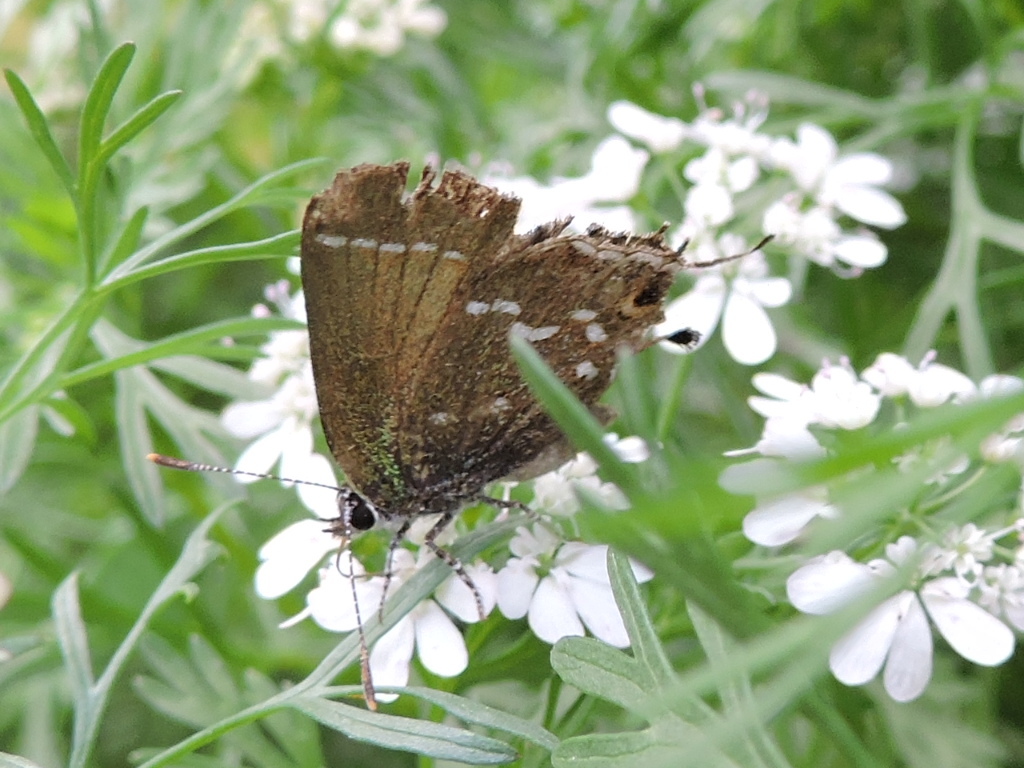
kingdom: Animalia
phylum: Arthropoda
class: Insecta
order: Lepidoptera
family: Lycaenidae
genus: Mitoura
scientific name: Mitoura gryneus
